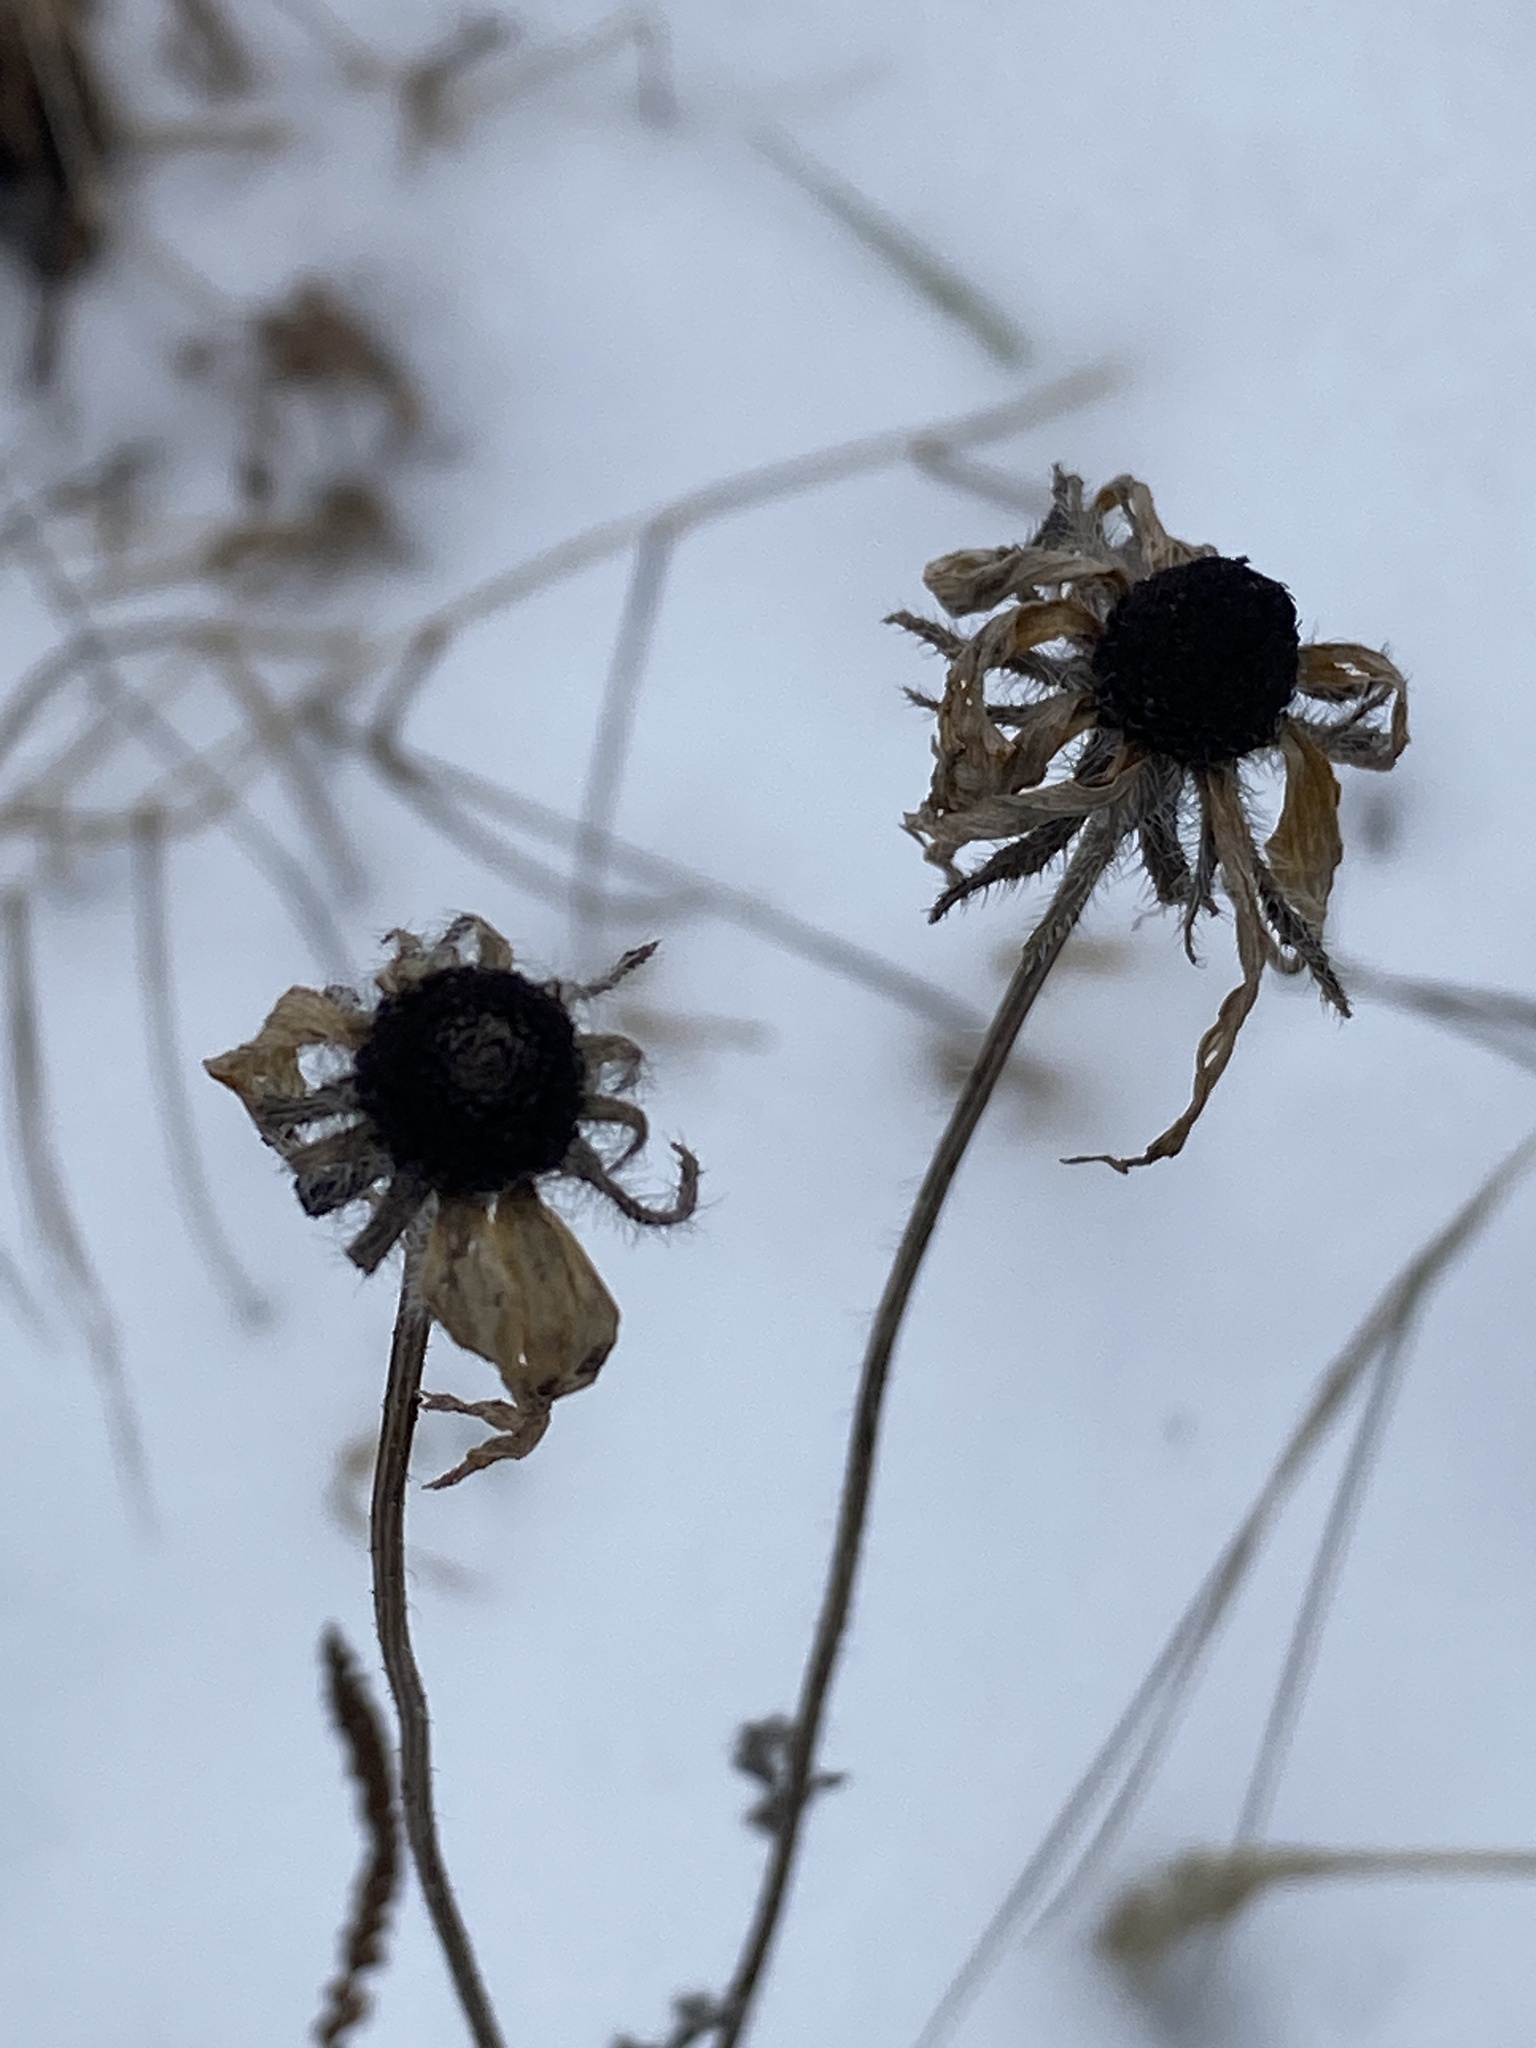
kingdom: Plantae
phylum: Tracheophyta
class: Magnoliopsida
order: Asterales
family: Asteraceae
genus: Rudbeckia
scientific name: Rudbeckia hirta
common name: Black-eyed-susan
